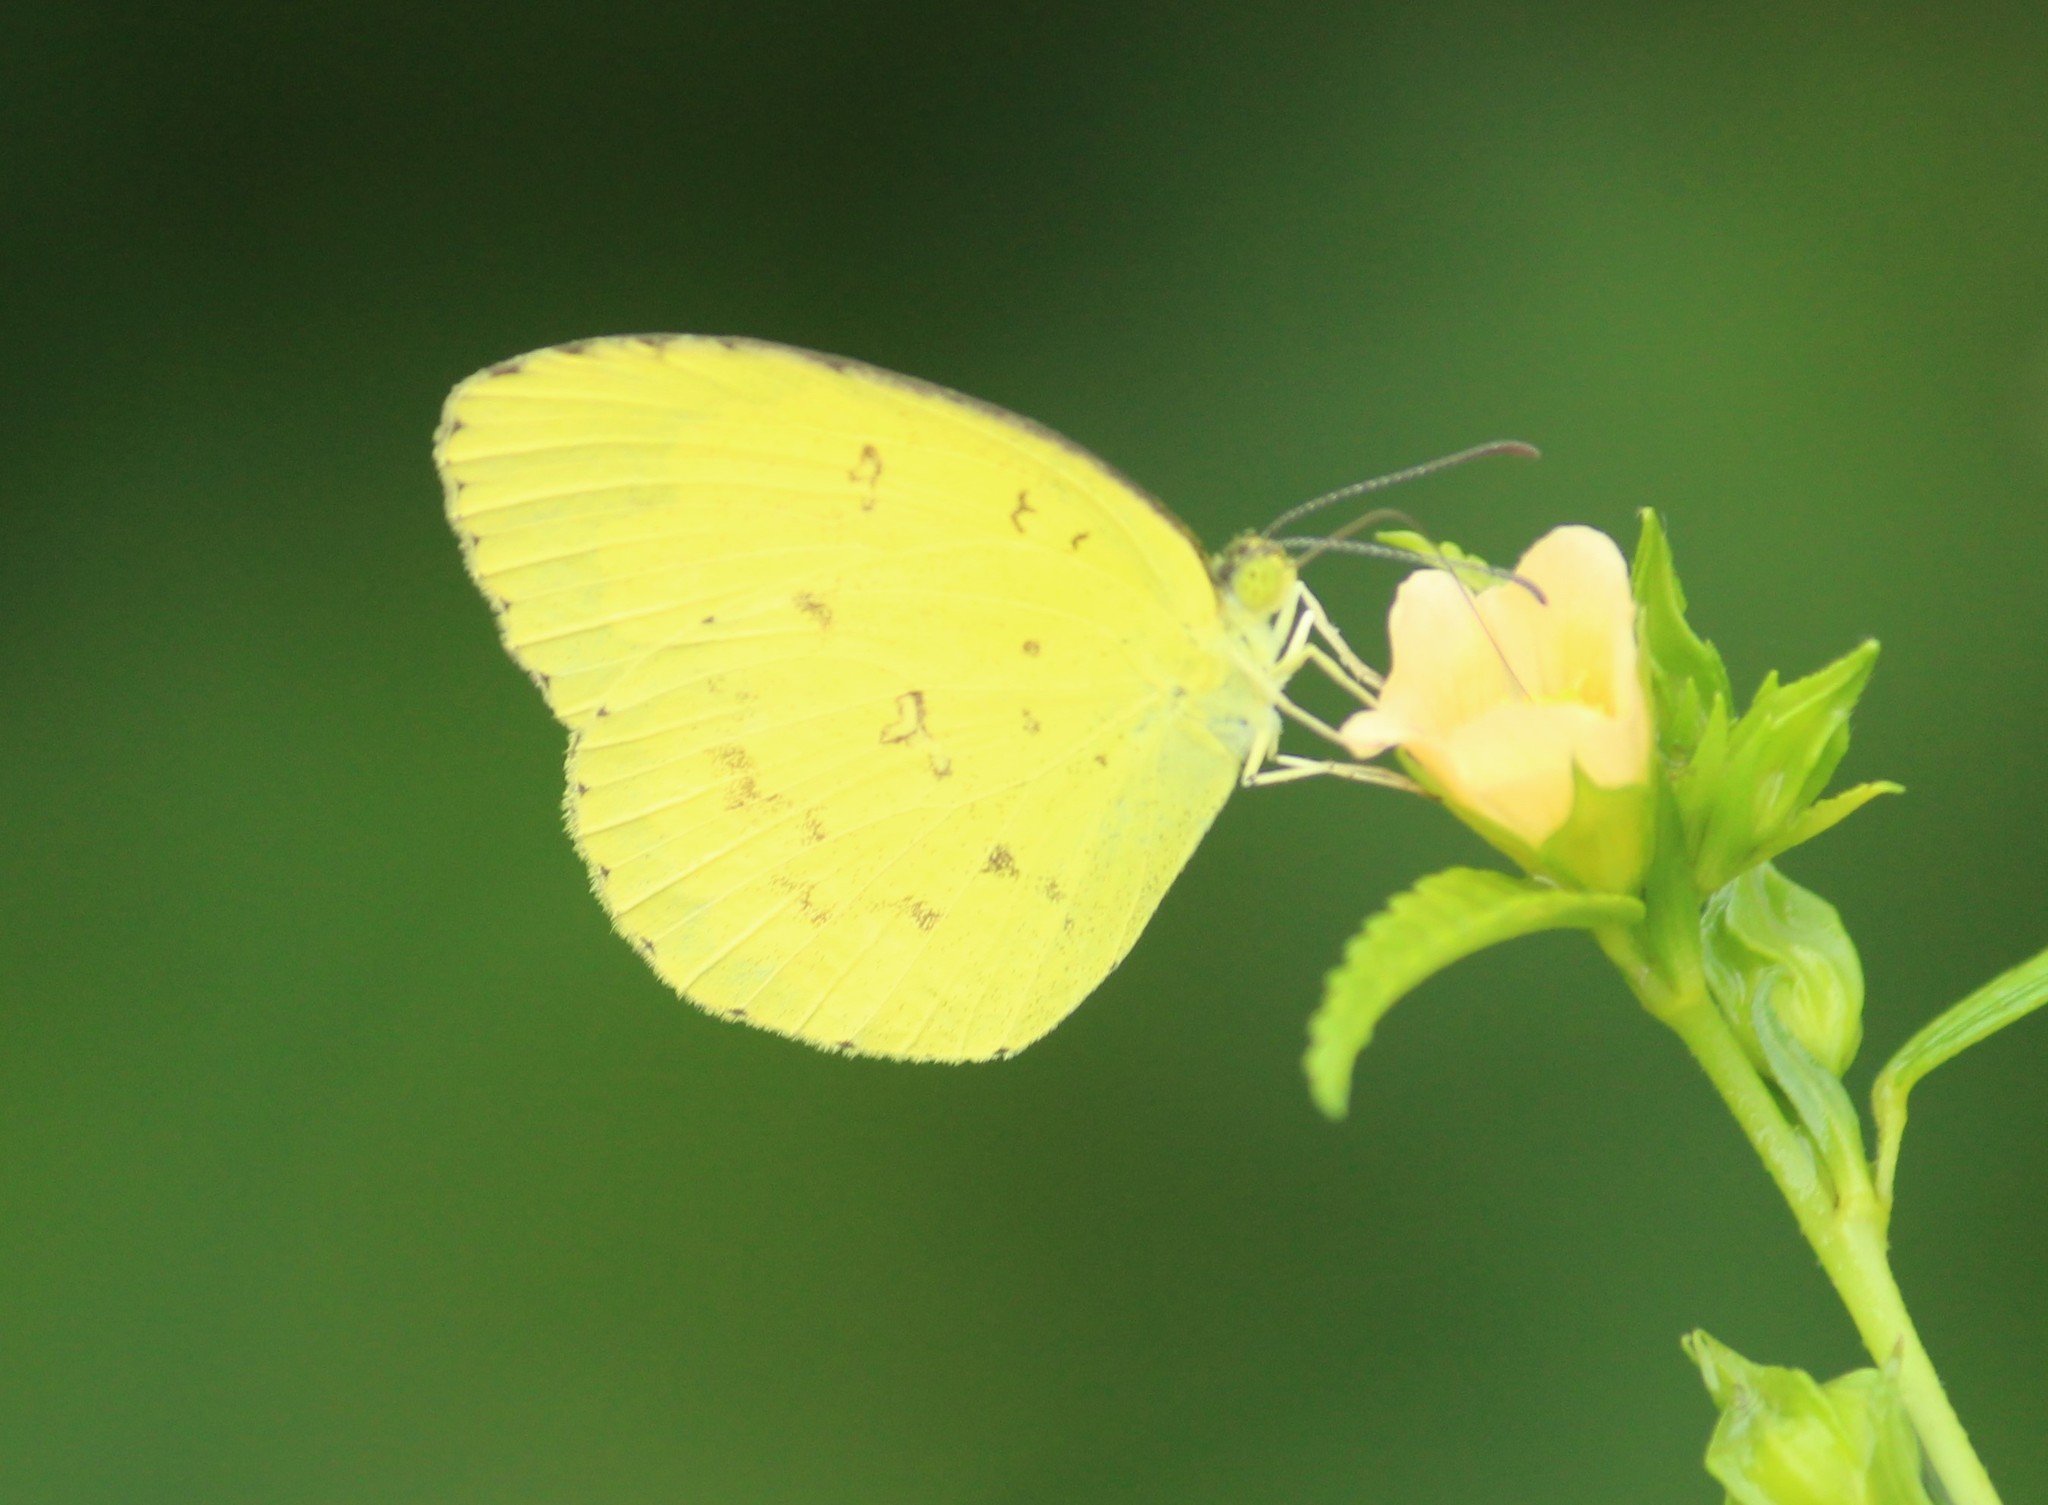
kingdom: Animalia
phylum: Arthropoda
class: Insecta
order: Lepidoptera
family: Pieridae
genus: Eurema
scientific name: Eurema hecabe
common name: Pale grass yellow
